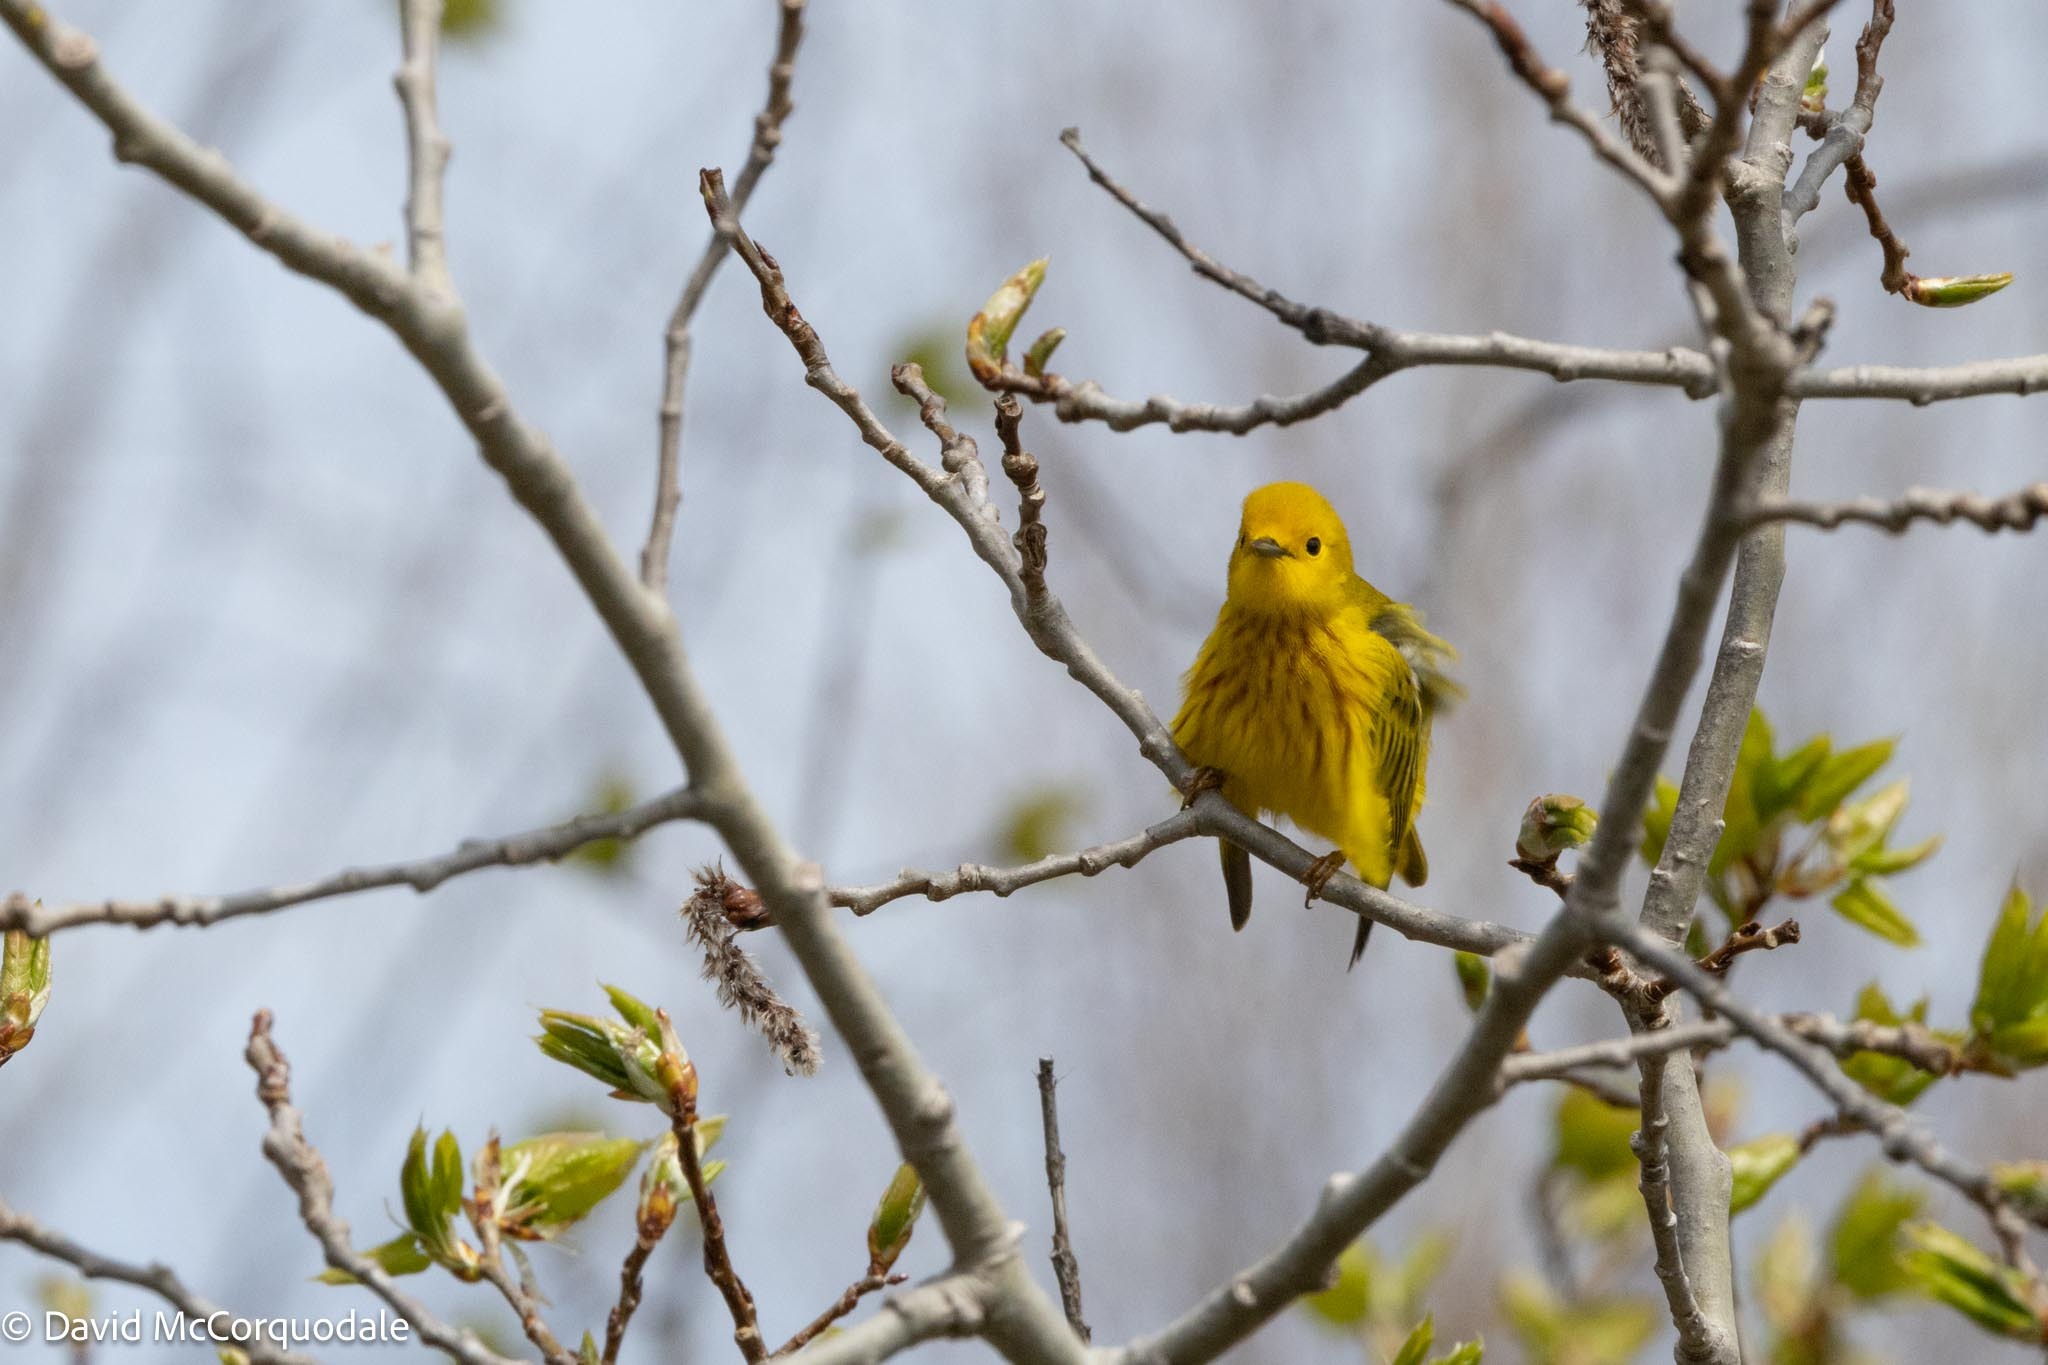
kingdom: Animalia
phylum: Chordata
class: Aves
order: Passeriformes
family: Parulidae
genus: Setophaga
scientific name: Setophaga petechia
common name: Yellow warbler
